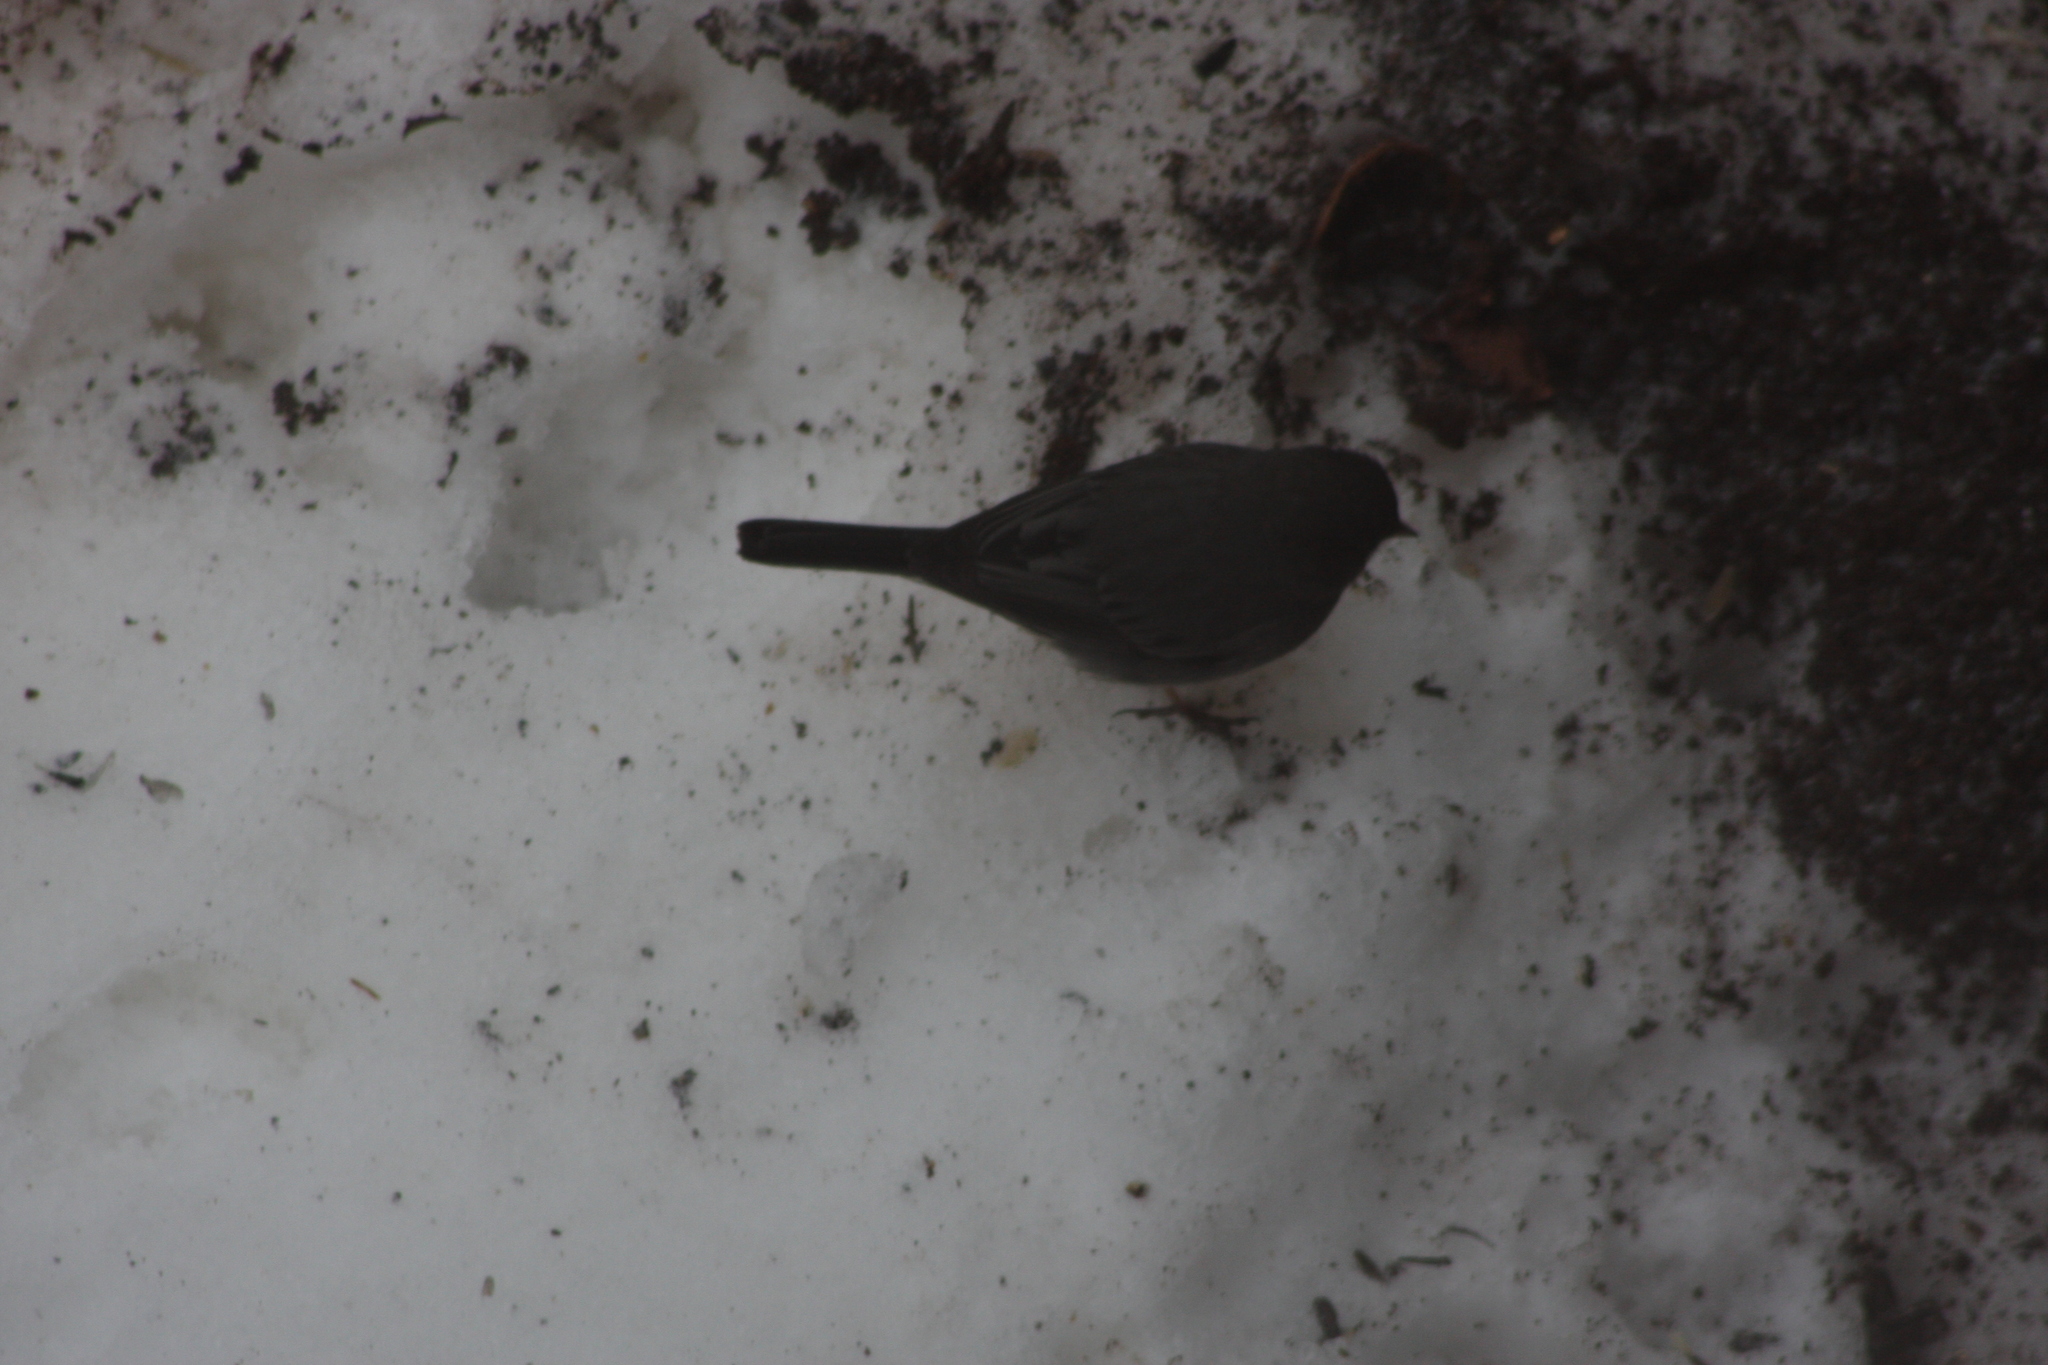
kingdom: Animalia
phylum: Chordata
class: Aves
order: Passeriformes
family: Passerellidae
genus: Junco
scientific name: Junco hyemalis
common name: Dark-eyed junco
